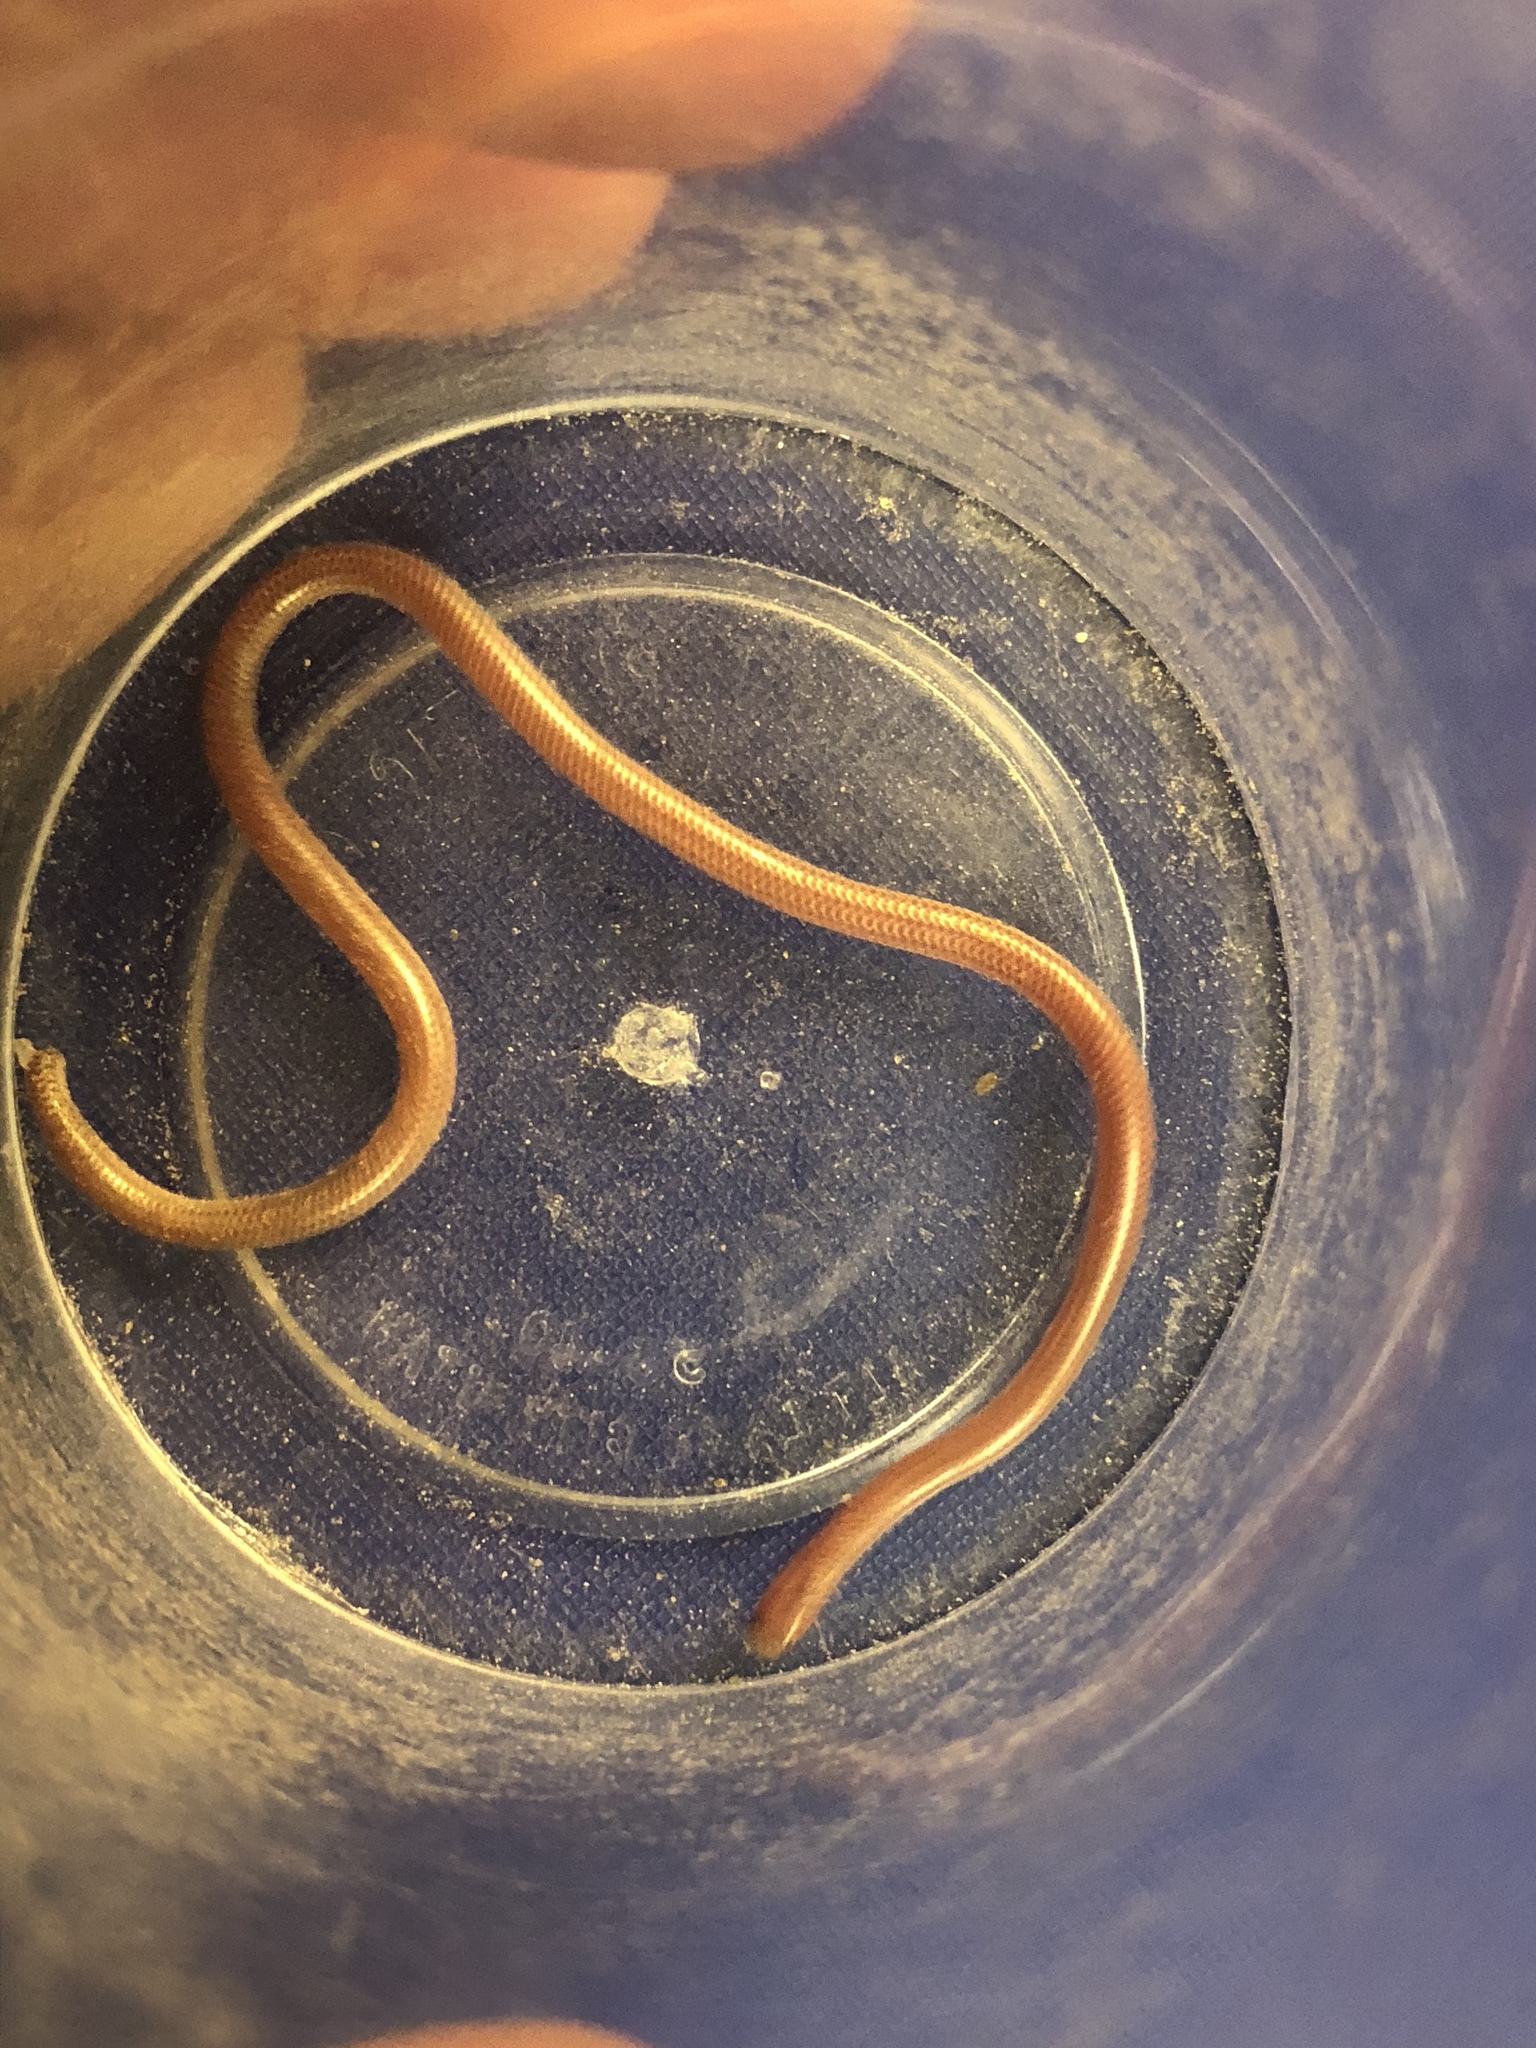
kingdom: Animalia
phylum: Chordata
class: Squamata
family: Leptotyphlopidae
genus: Rena
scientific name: Rena humilis
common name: Western threadsnake
